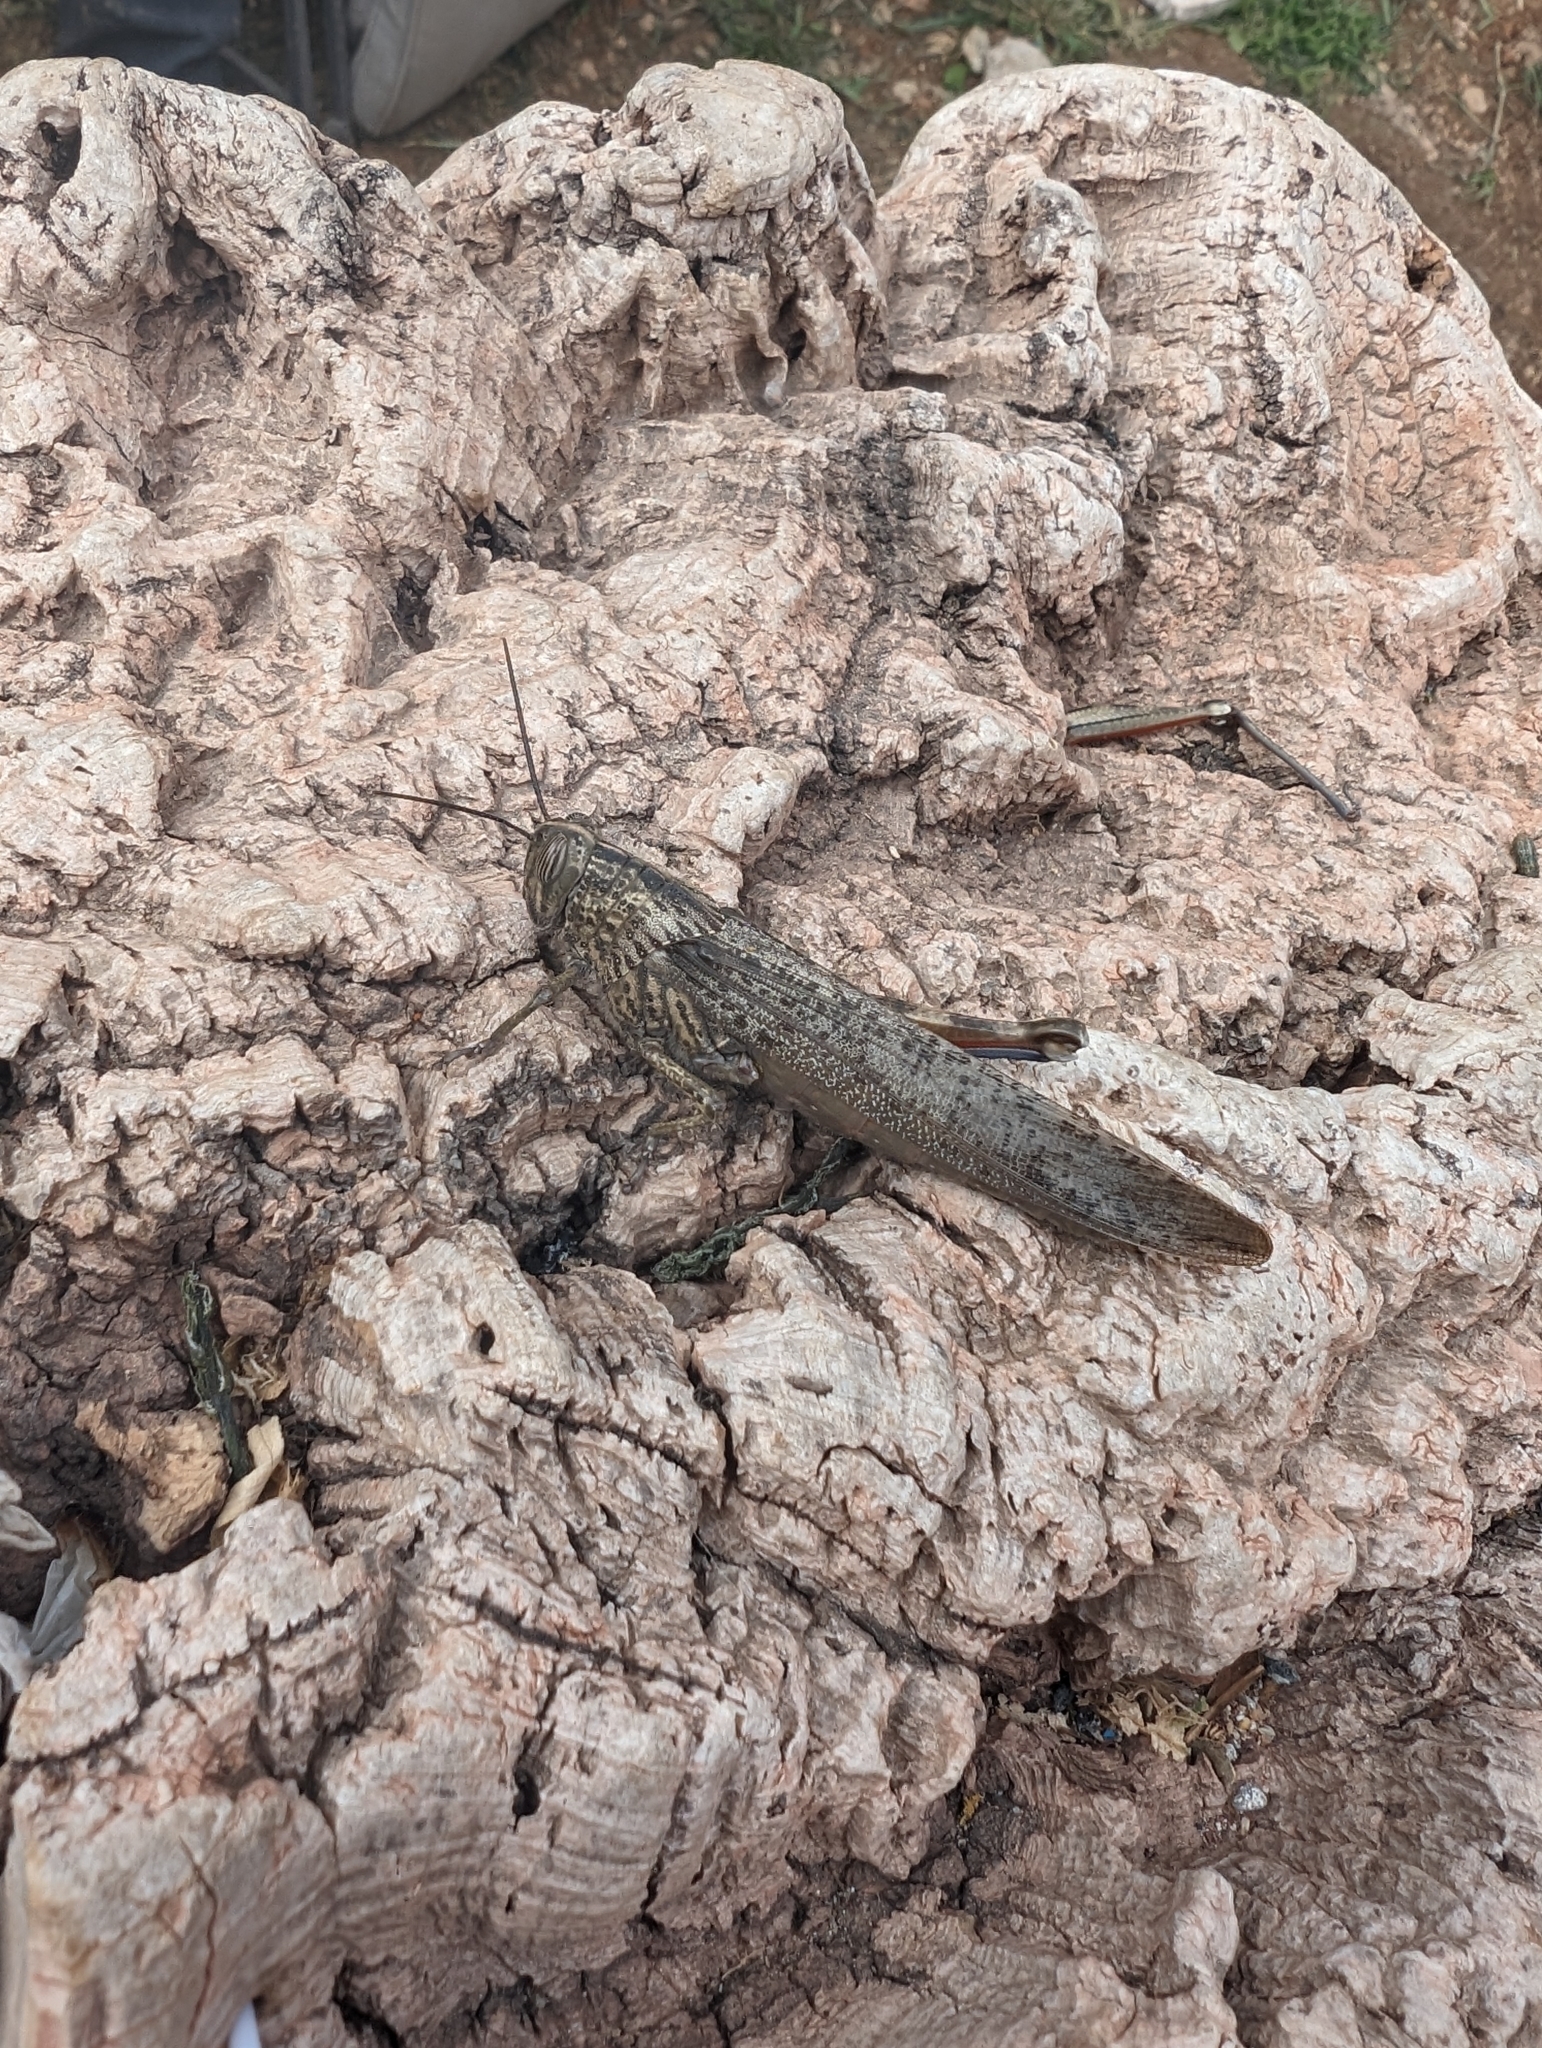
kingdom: Animalia
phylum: Arthropoda
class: Insecta
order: Orthoptera
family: Acrididae
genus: Anacridium
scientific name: Anacridium aegyptium
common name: Egyptian grasshopper
